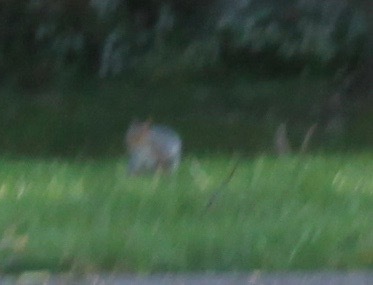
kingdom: Animalia
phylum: Chordata
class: Mammalia
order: Rodentia
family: Sciuridae
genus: Sciurus
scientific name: Sciurus carolinensis
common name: Eastern gray squirrel
